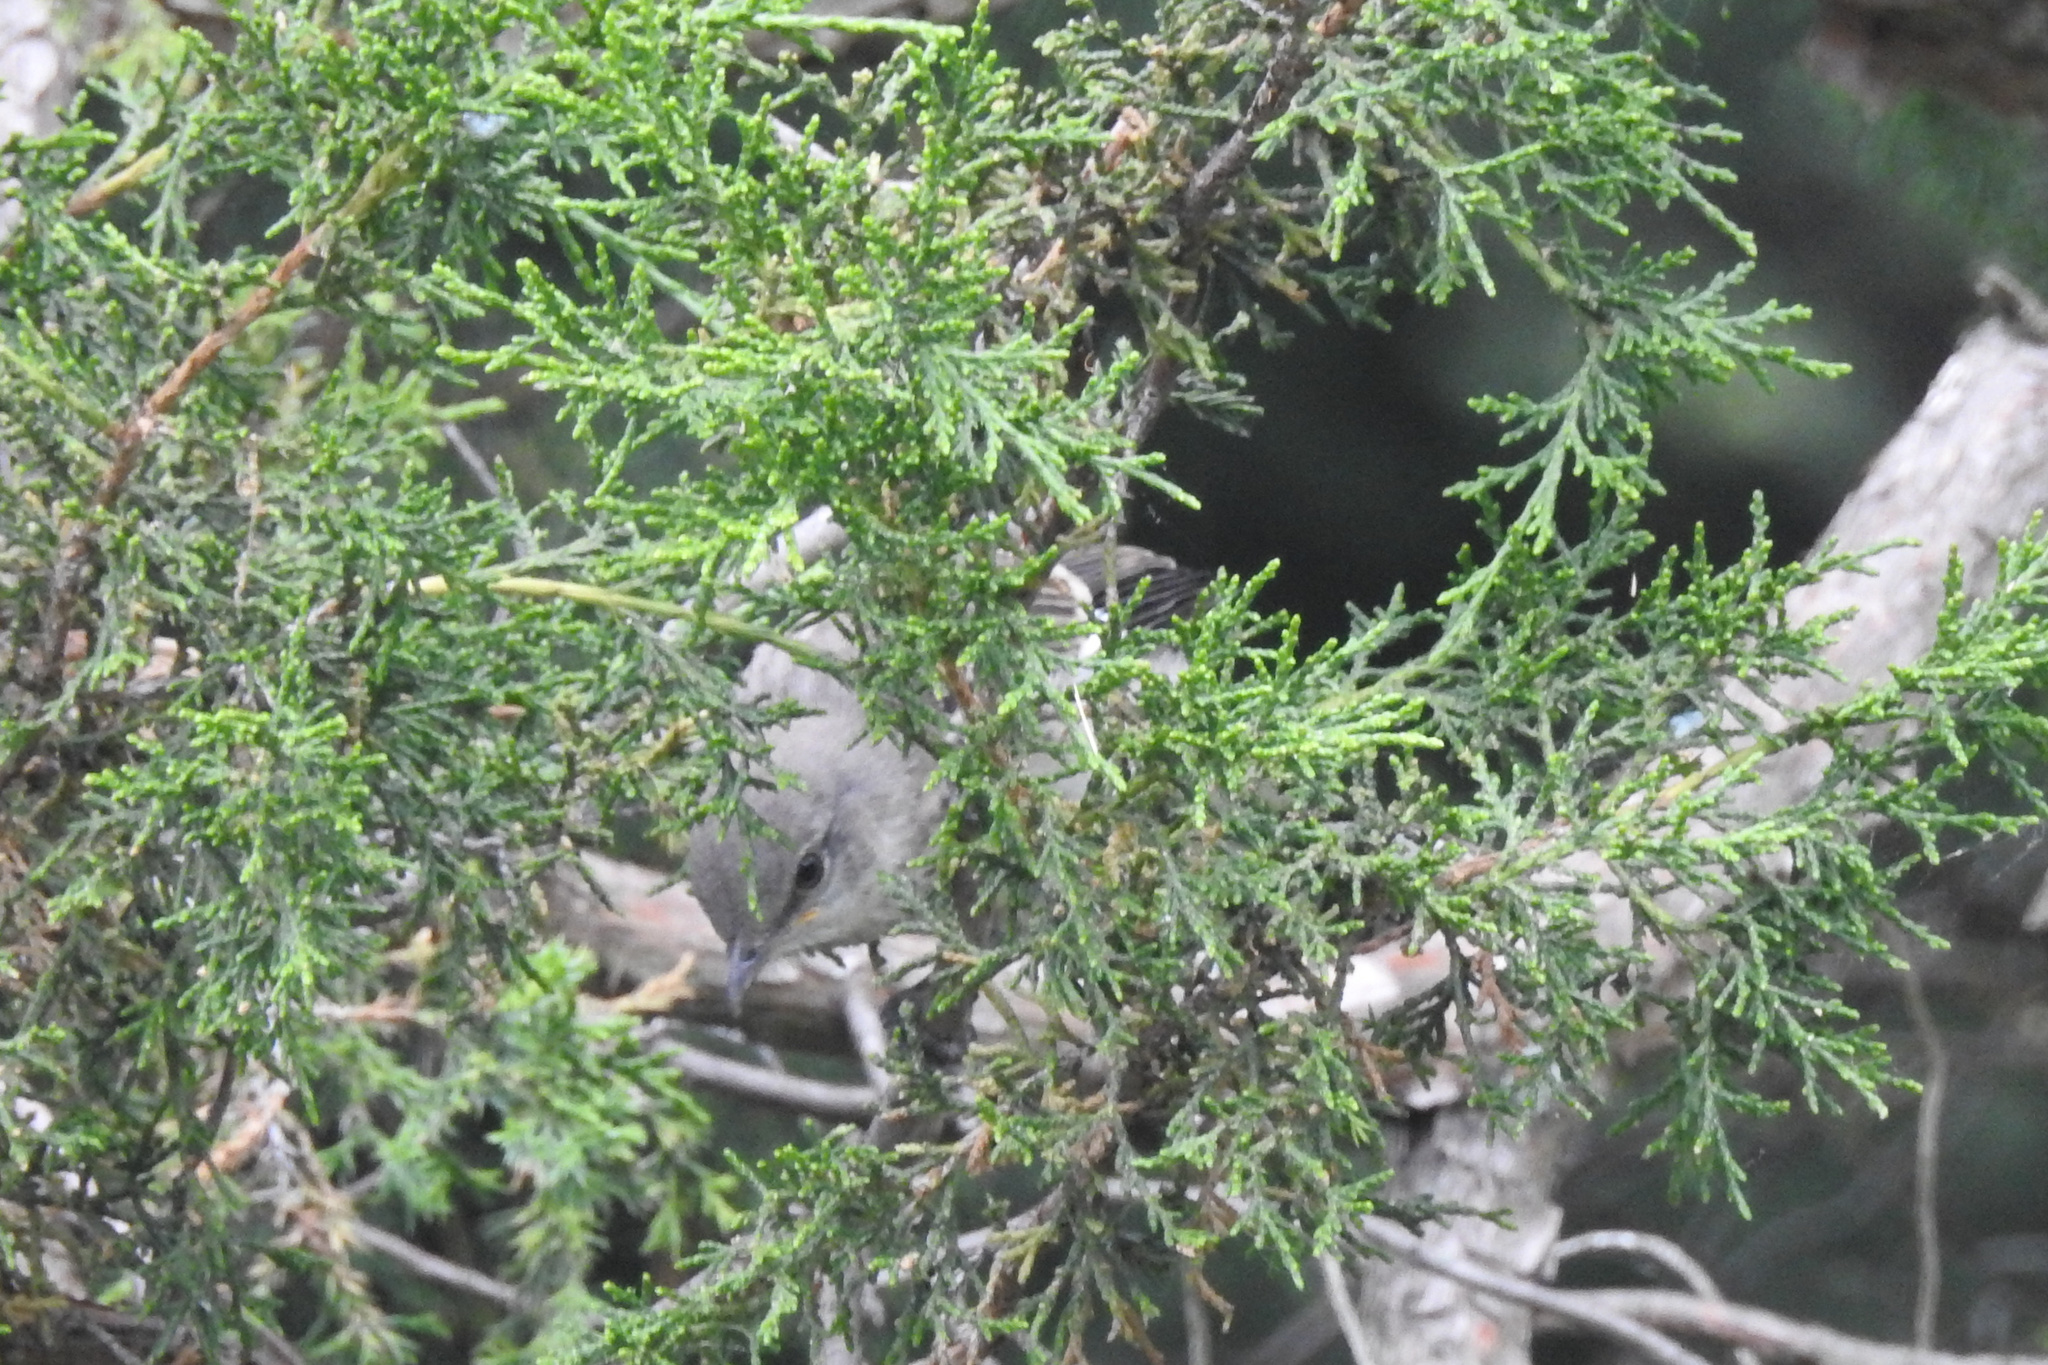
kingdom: Animalia
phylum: Chordata
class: Aves
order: Passeriformes
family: Mimidae
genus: Mimus
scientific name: Mimus polyglottos
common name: Northern mockingbird
